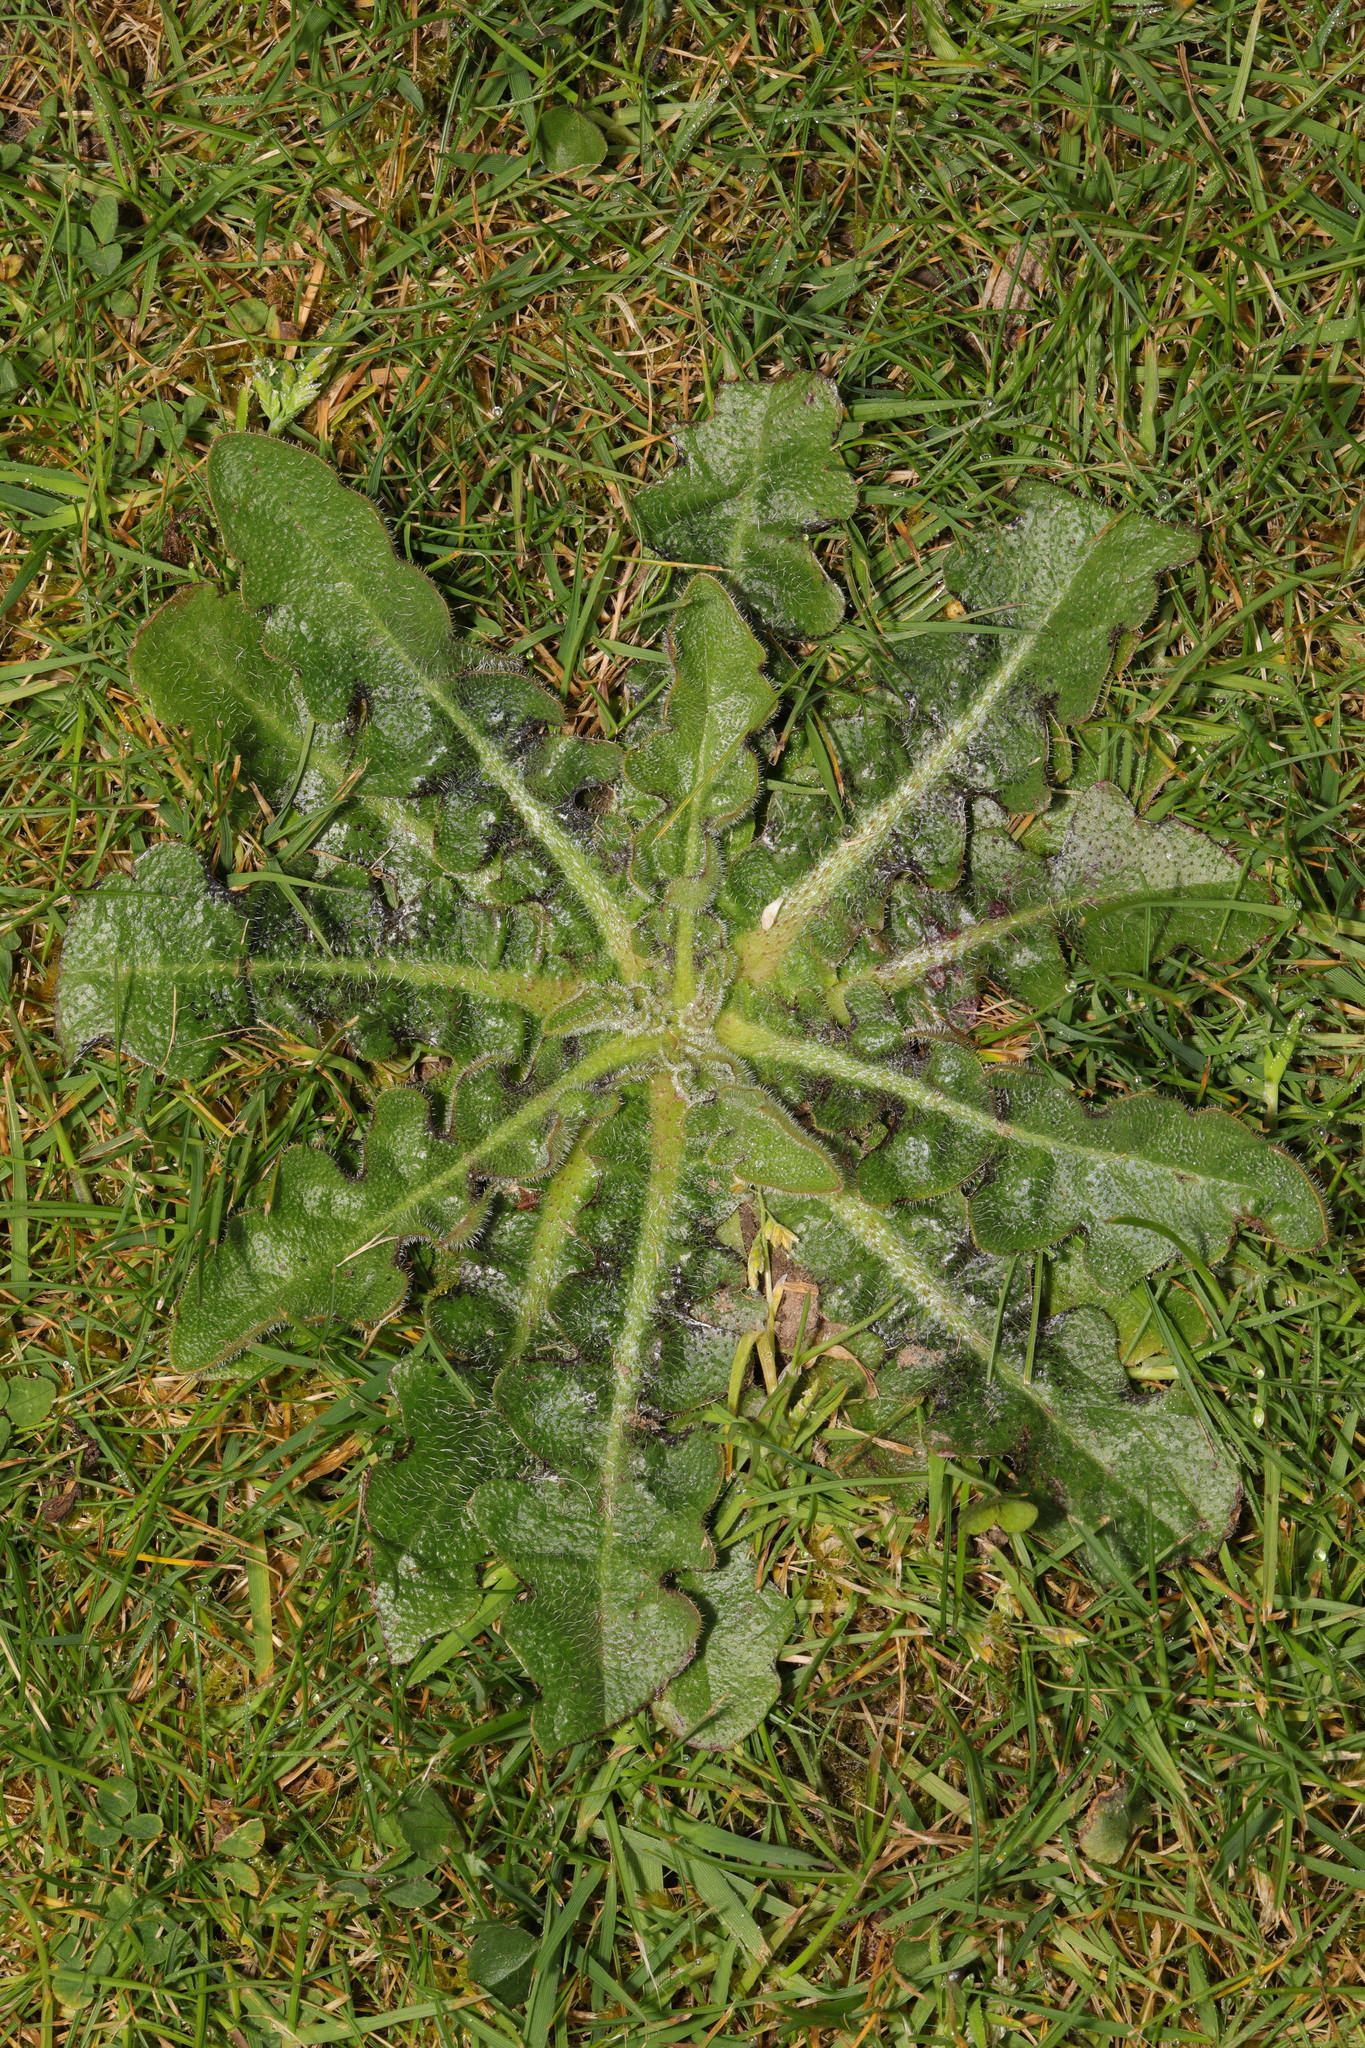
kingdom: Plantae
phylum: Tracheophyta
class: Magnoliopsida
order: Asterales
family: Asteraceae
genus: Hypochaeris
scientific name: Hypochaeris radicata
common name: Flatweed
